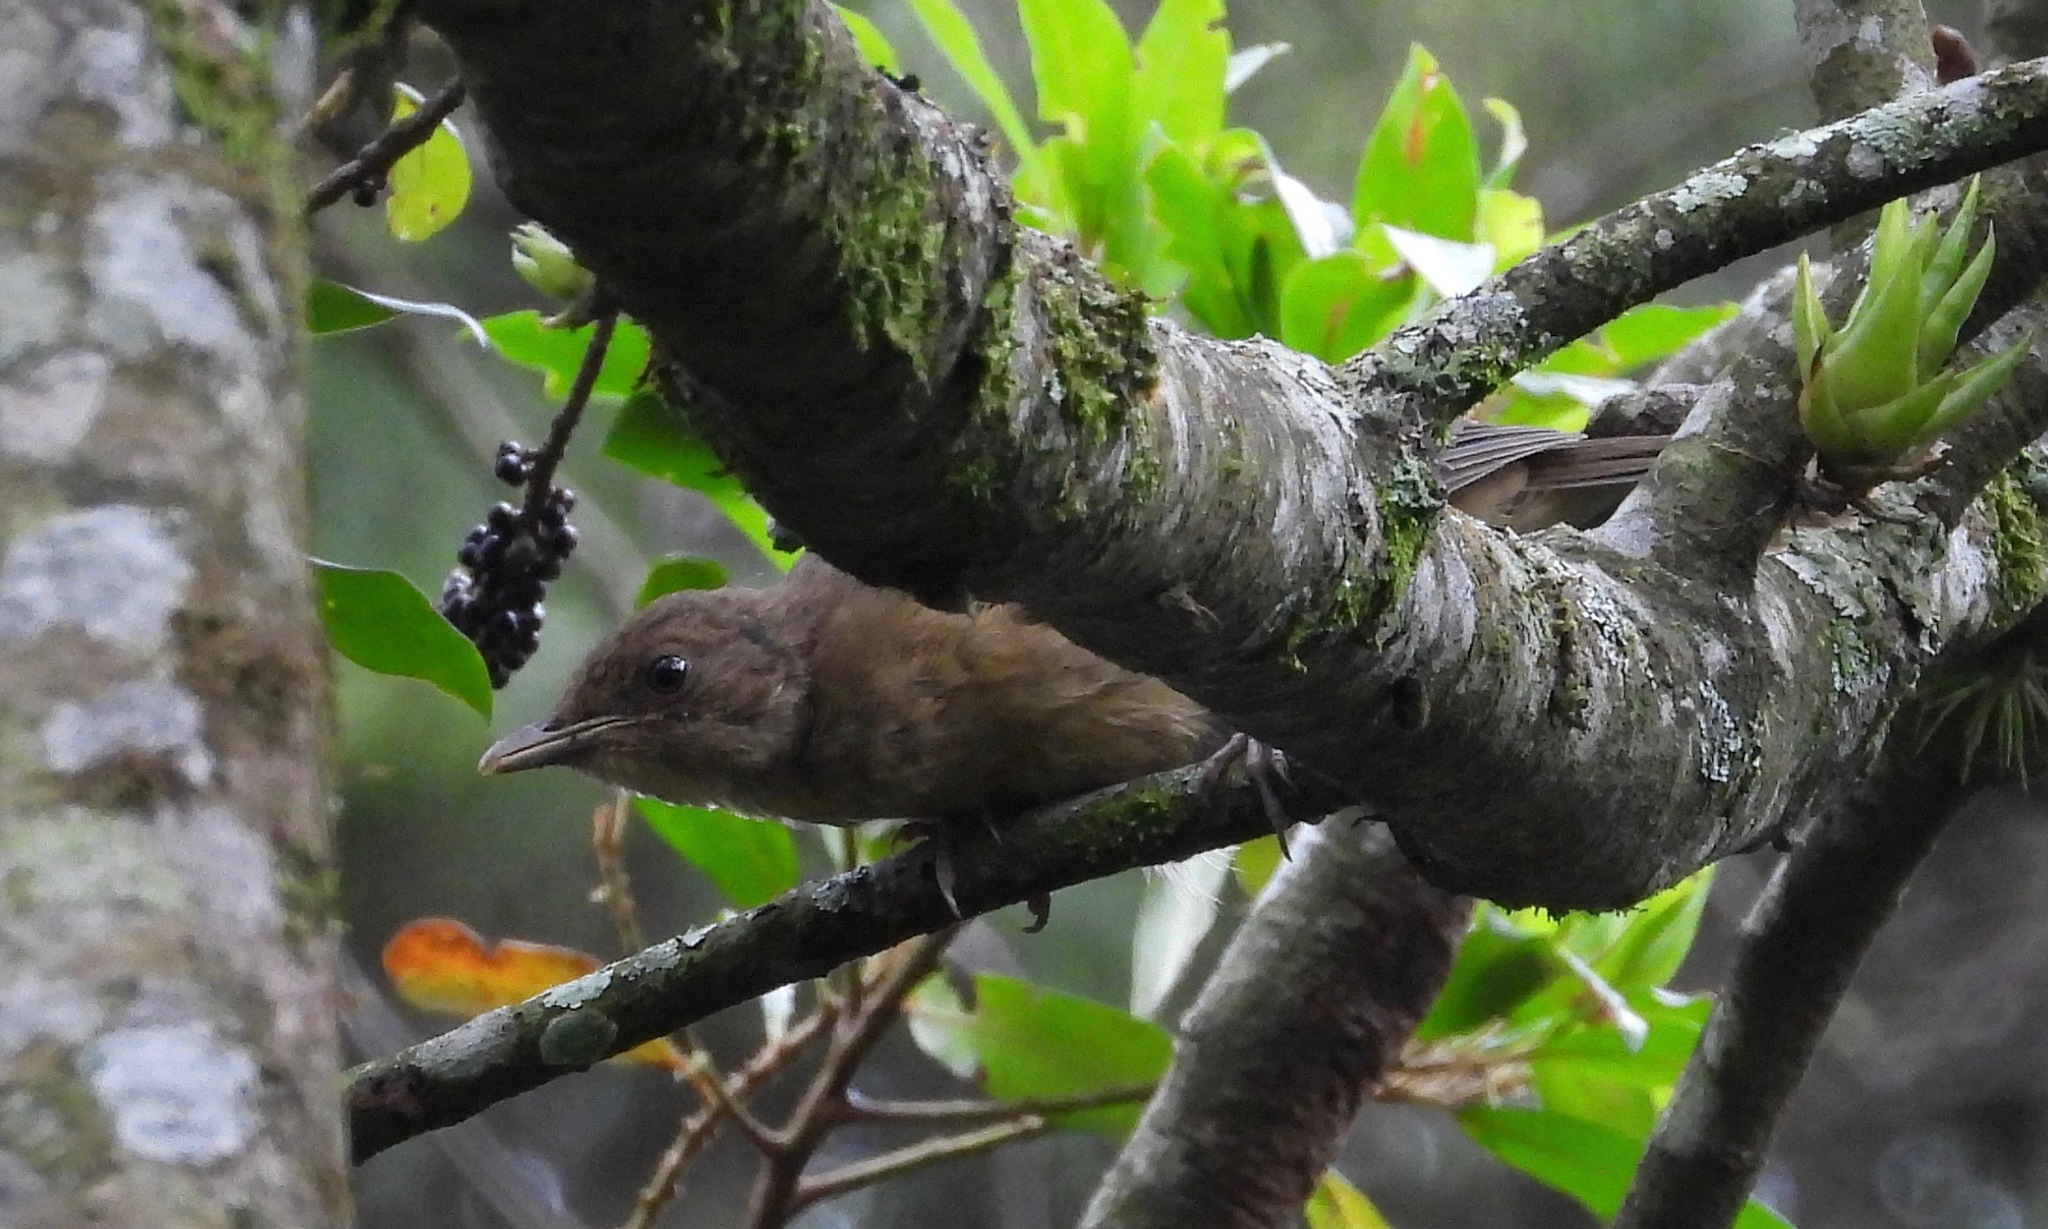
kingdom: Animalia
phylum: Chordata
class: Aves
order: Passeriformes
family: Turdidae
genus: Turdus
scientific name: Turdus grayi
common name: Clay-colored thrush
